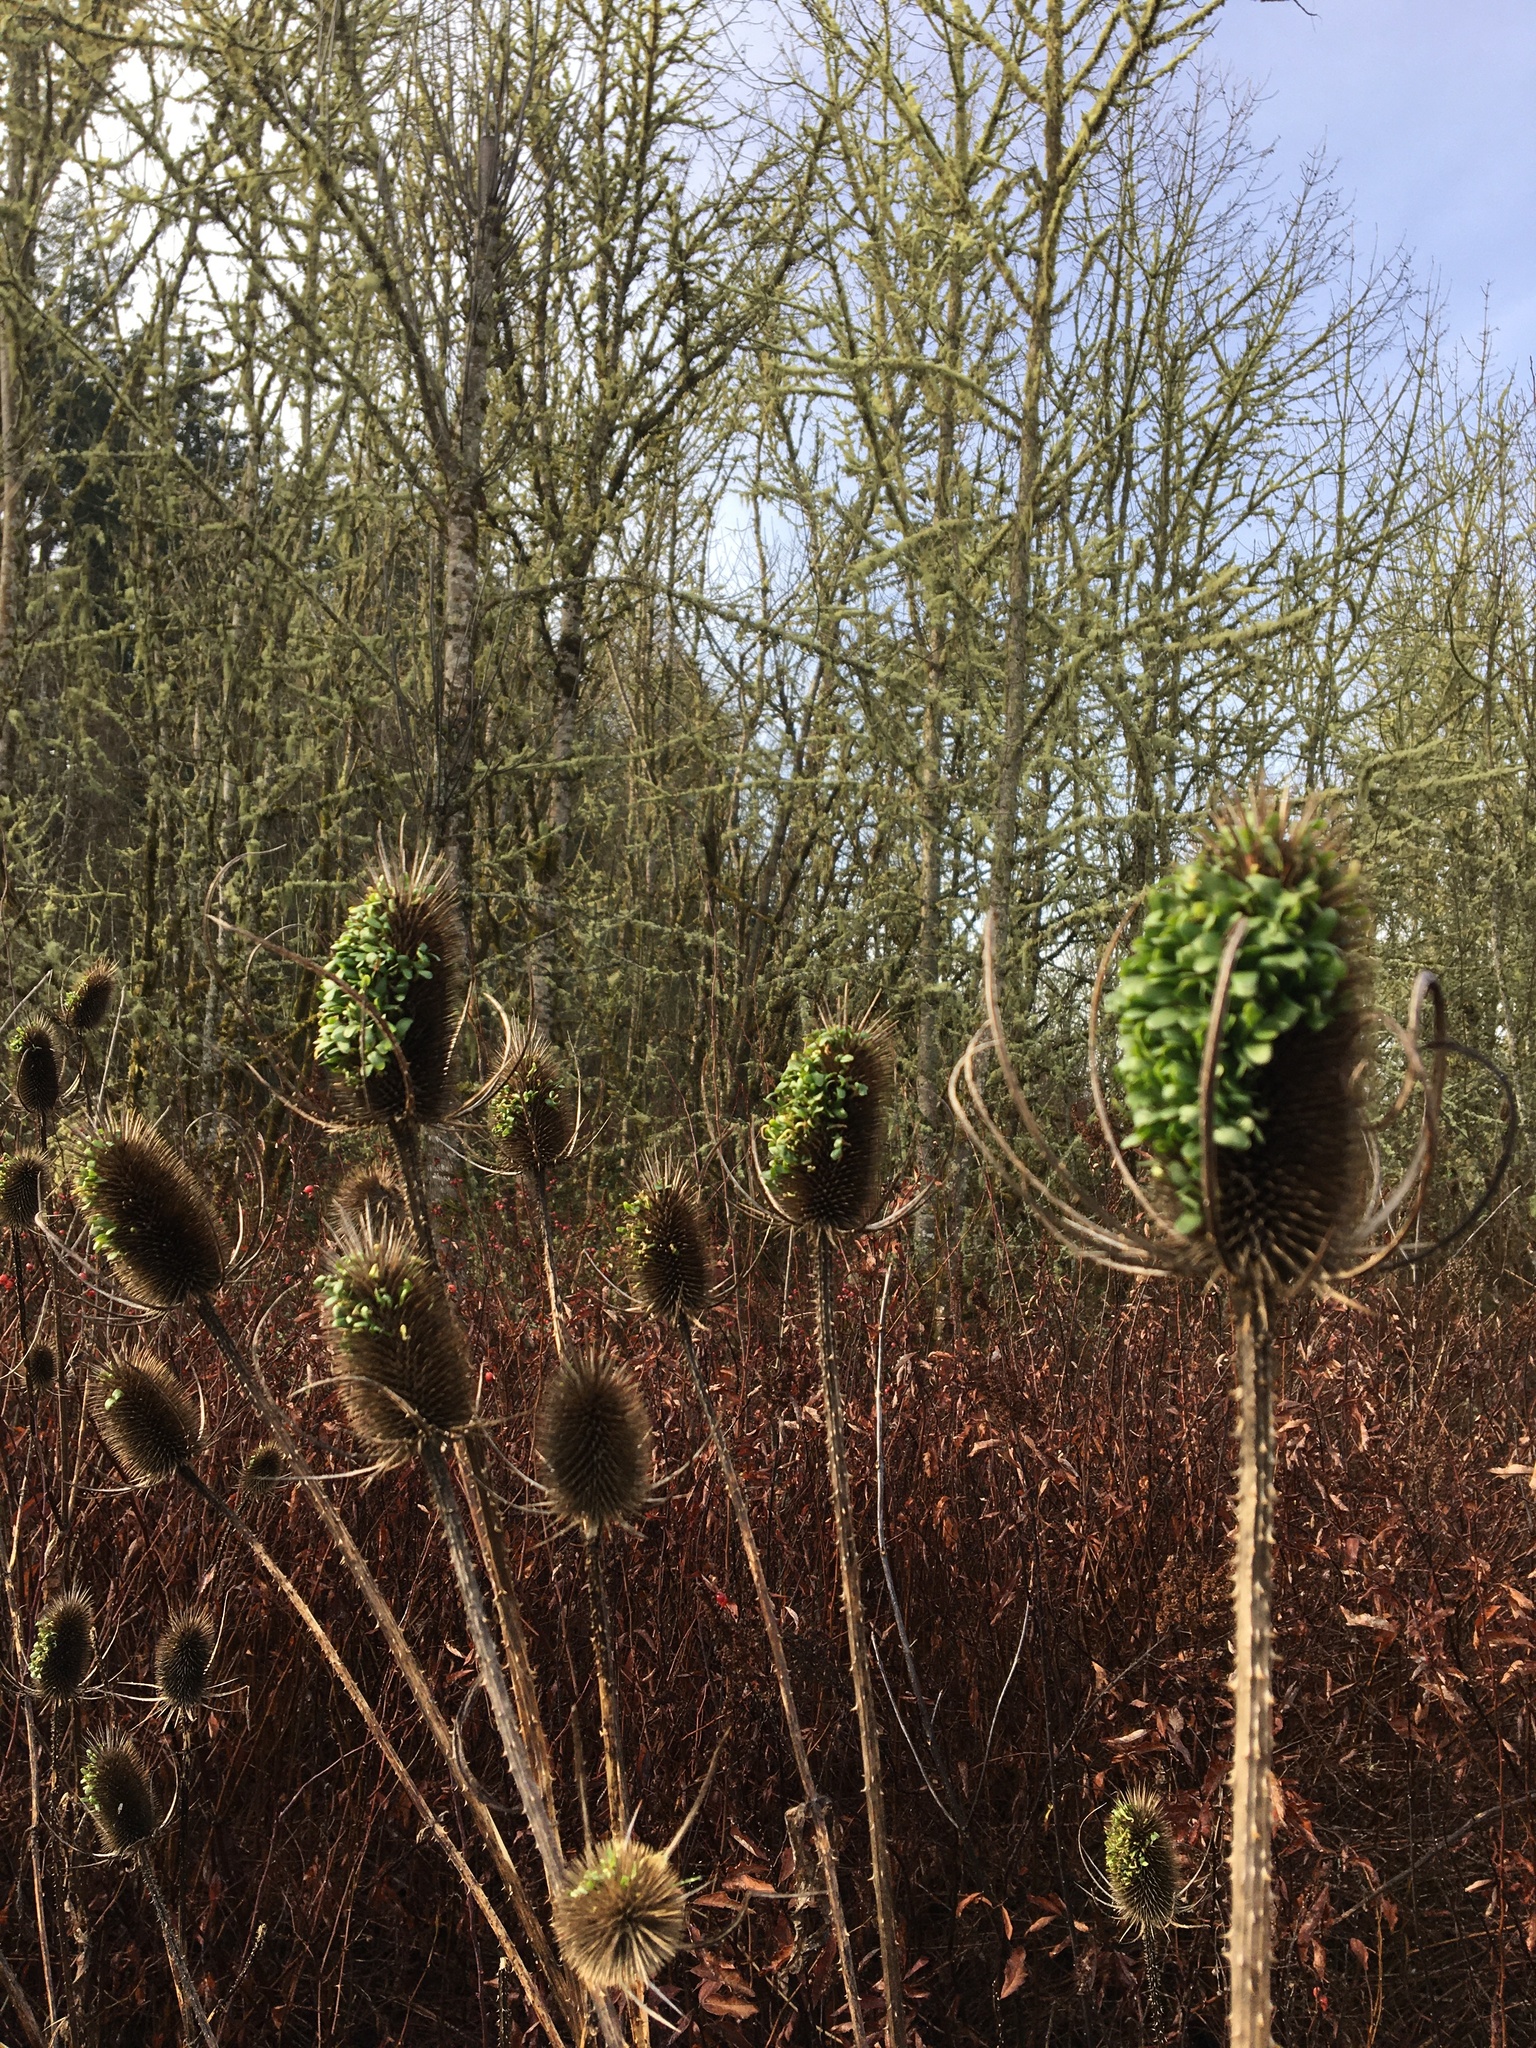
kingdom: Plantae
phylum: Tracheophyta
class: Magnoliopsida
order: Dipsacales
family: Caprifoliaceae
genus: Dipsacus
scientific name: Dipsacus fullonum
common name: Teasel
